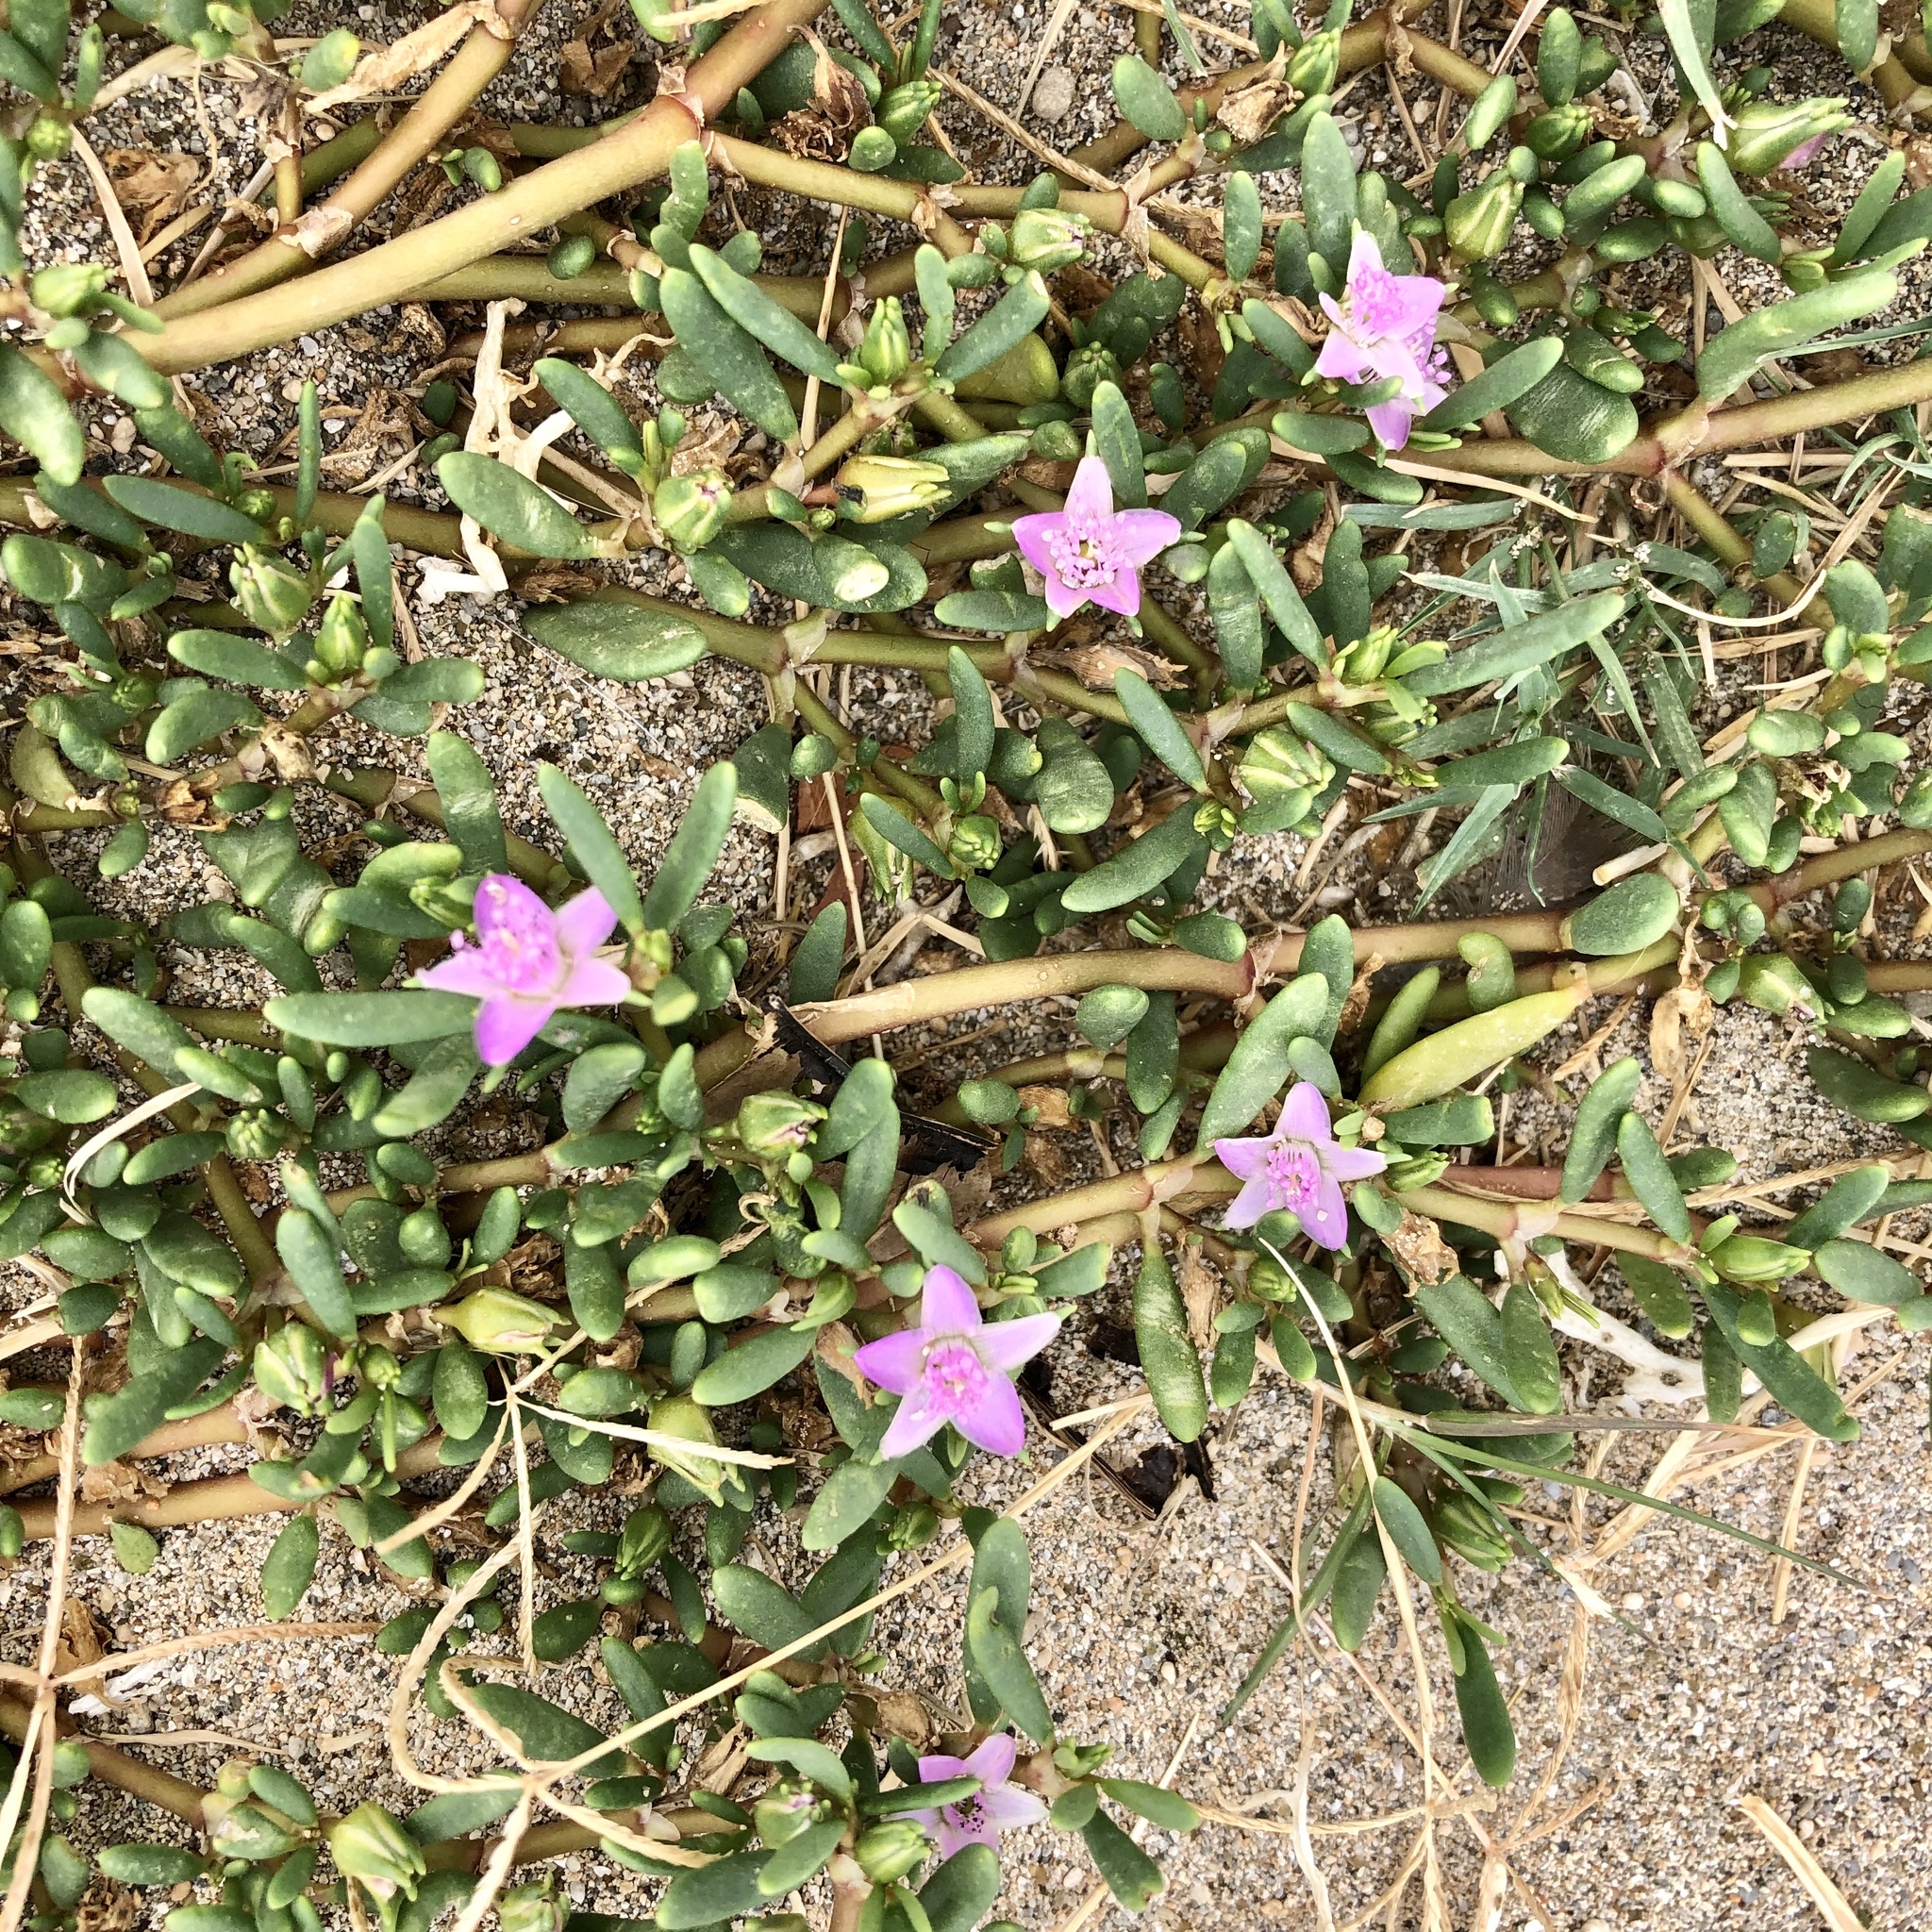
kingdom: Plantae
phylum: Tracheophyta
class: Magnoliopsida
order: Caryophyllales
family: Aizoaceae
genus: Sesuvium
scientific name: Sesuvium portulacastrum
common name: Sea-purslane
